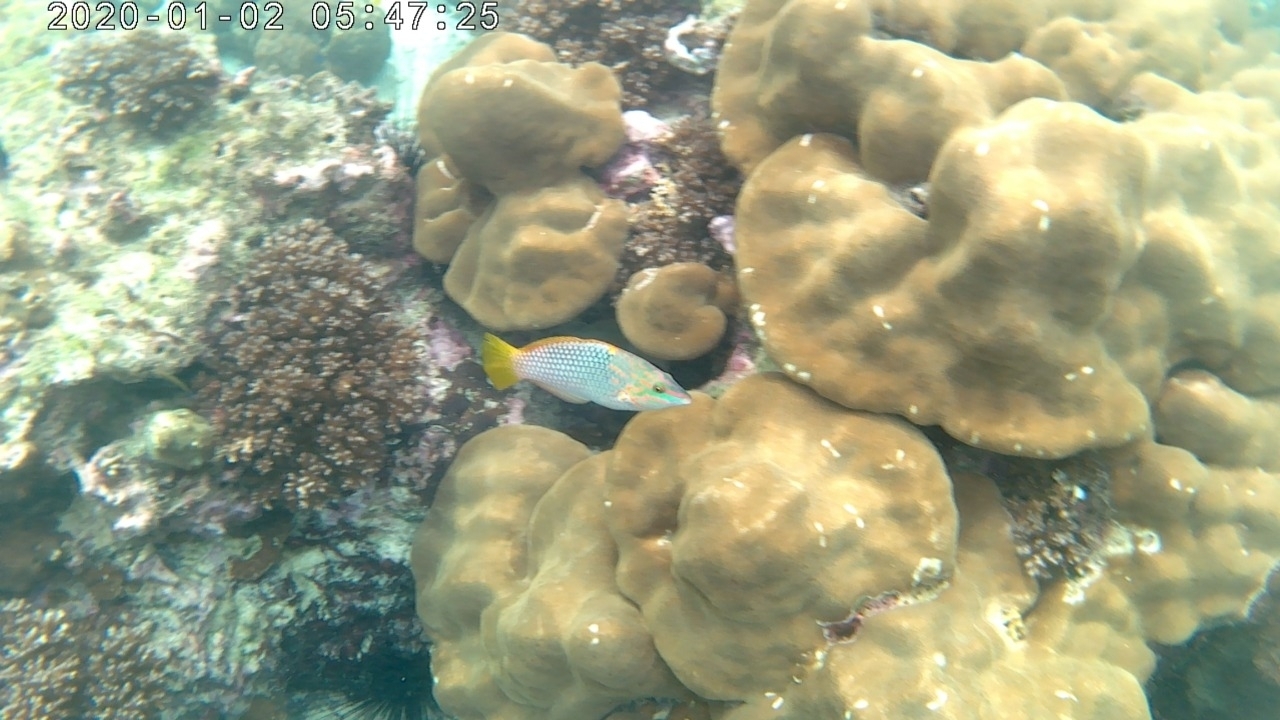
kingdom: Animalia
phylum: Chordata
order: Perciformes
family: Labridae
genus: Halichoeres
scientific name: Halichoeres hortulanus
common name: Checkerboard wrasse
